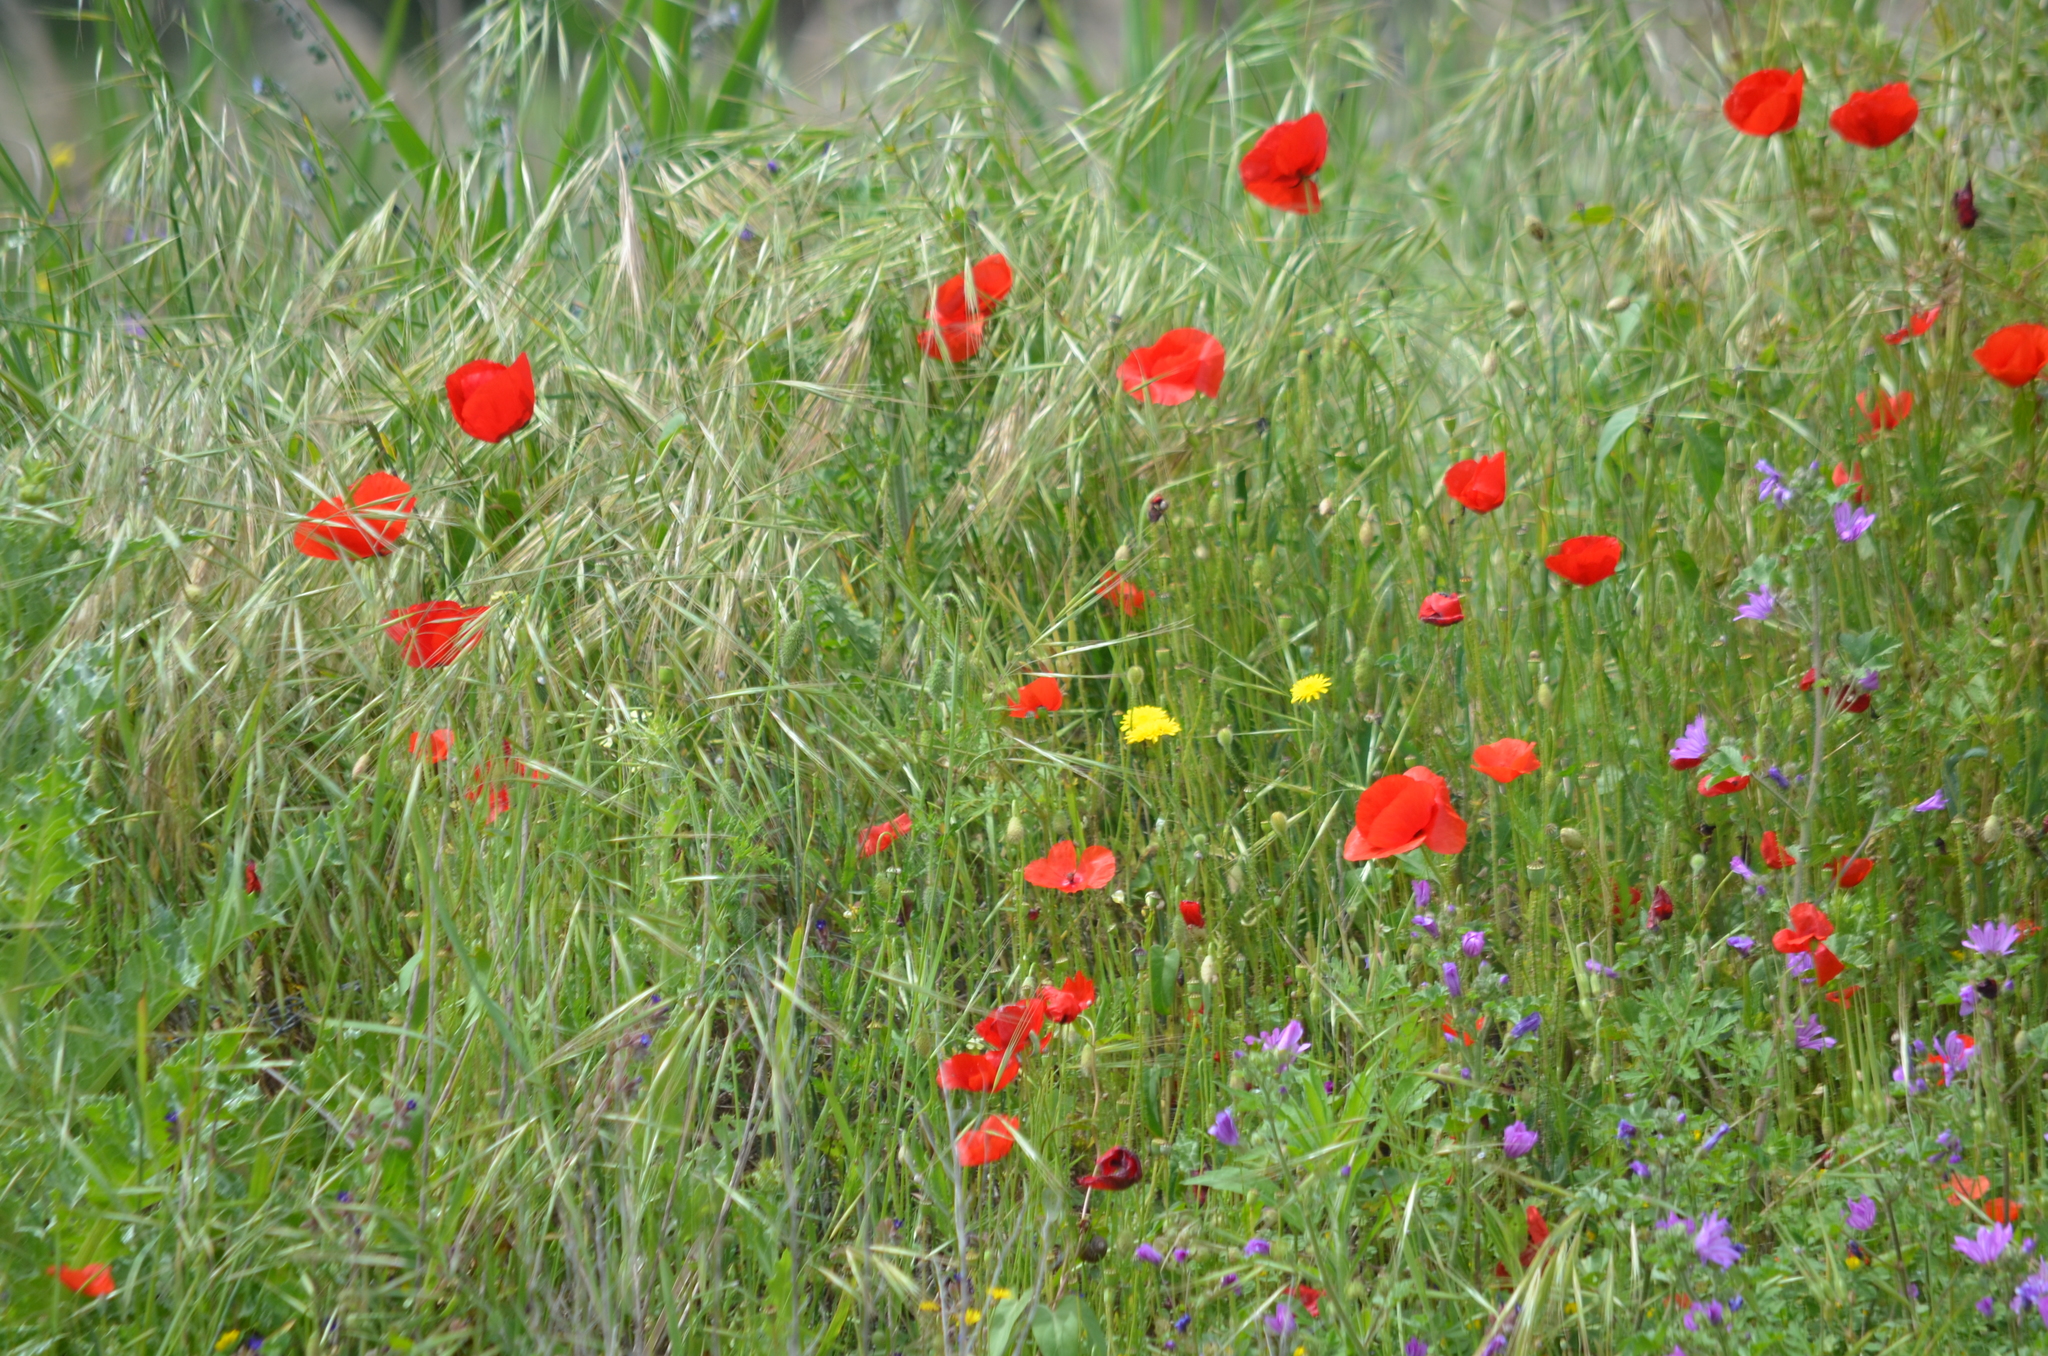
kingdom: Plantae
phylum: Tracheophyta
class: Magnoliopsida
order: Ranunculales
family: Papaveraceae
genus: Papaver
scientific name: Papaver rhoeas
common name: Corn poppy
